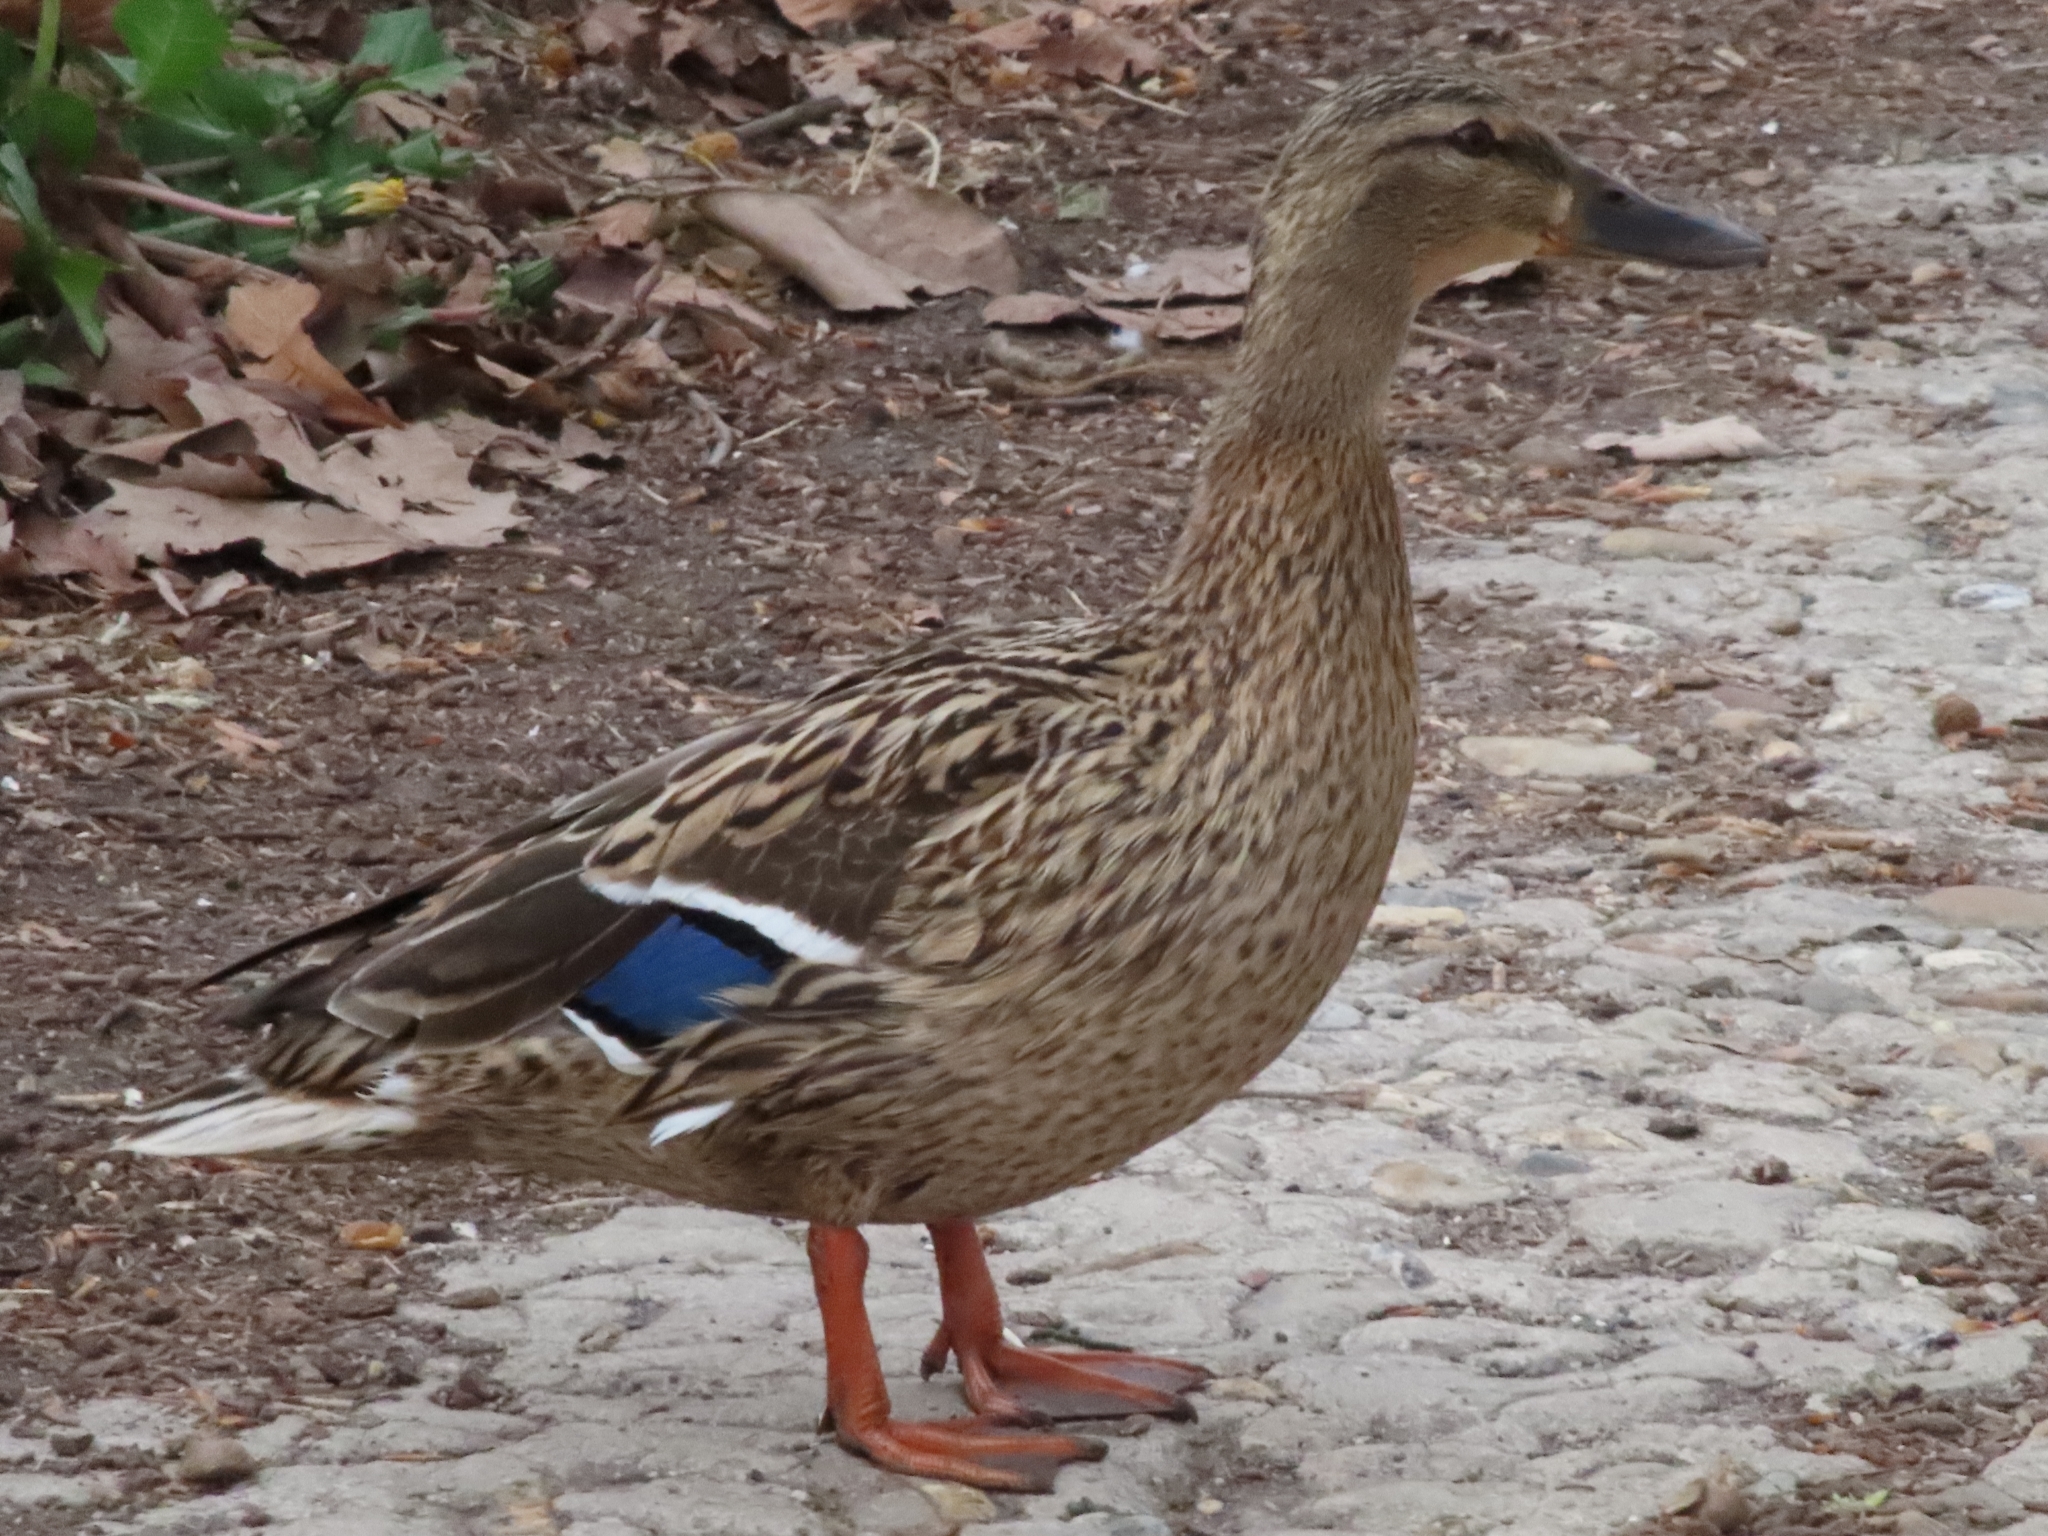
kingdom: Animalia
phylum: Chordata
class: Aves
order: Anseriformes
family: Anatidae
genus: Anas
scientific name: Anas platyrhynchos
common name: Mallard
